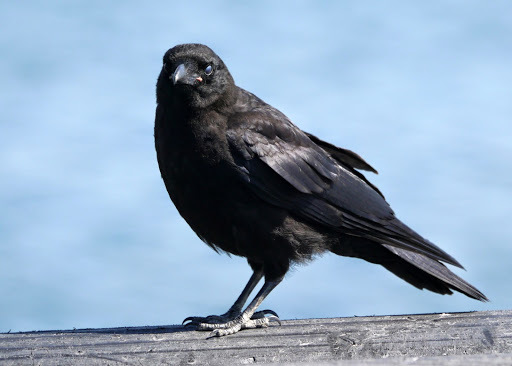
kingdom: Animalia
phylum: Chordata
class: Aves
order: Passeriformes
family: Corvidae
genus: Corvus
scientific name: Corvus brachyrhynchos
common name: American crow
